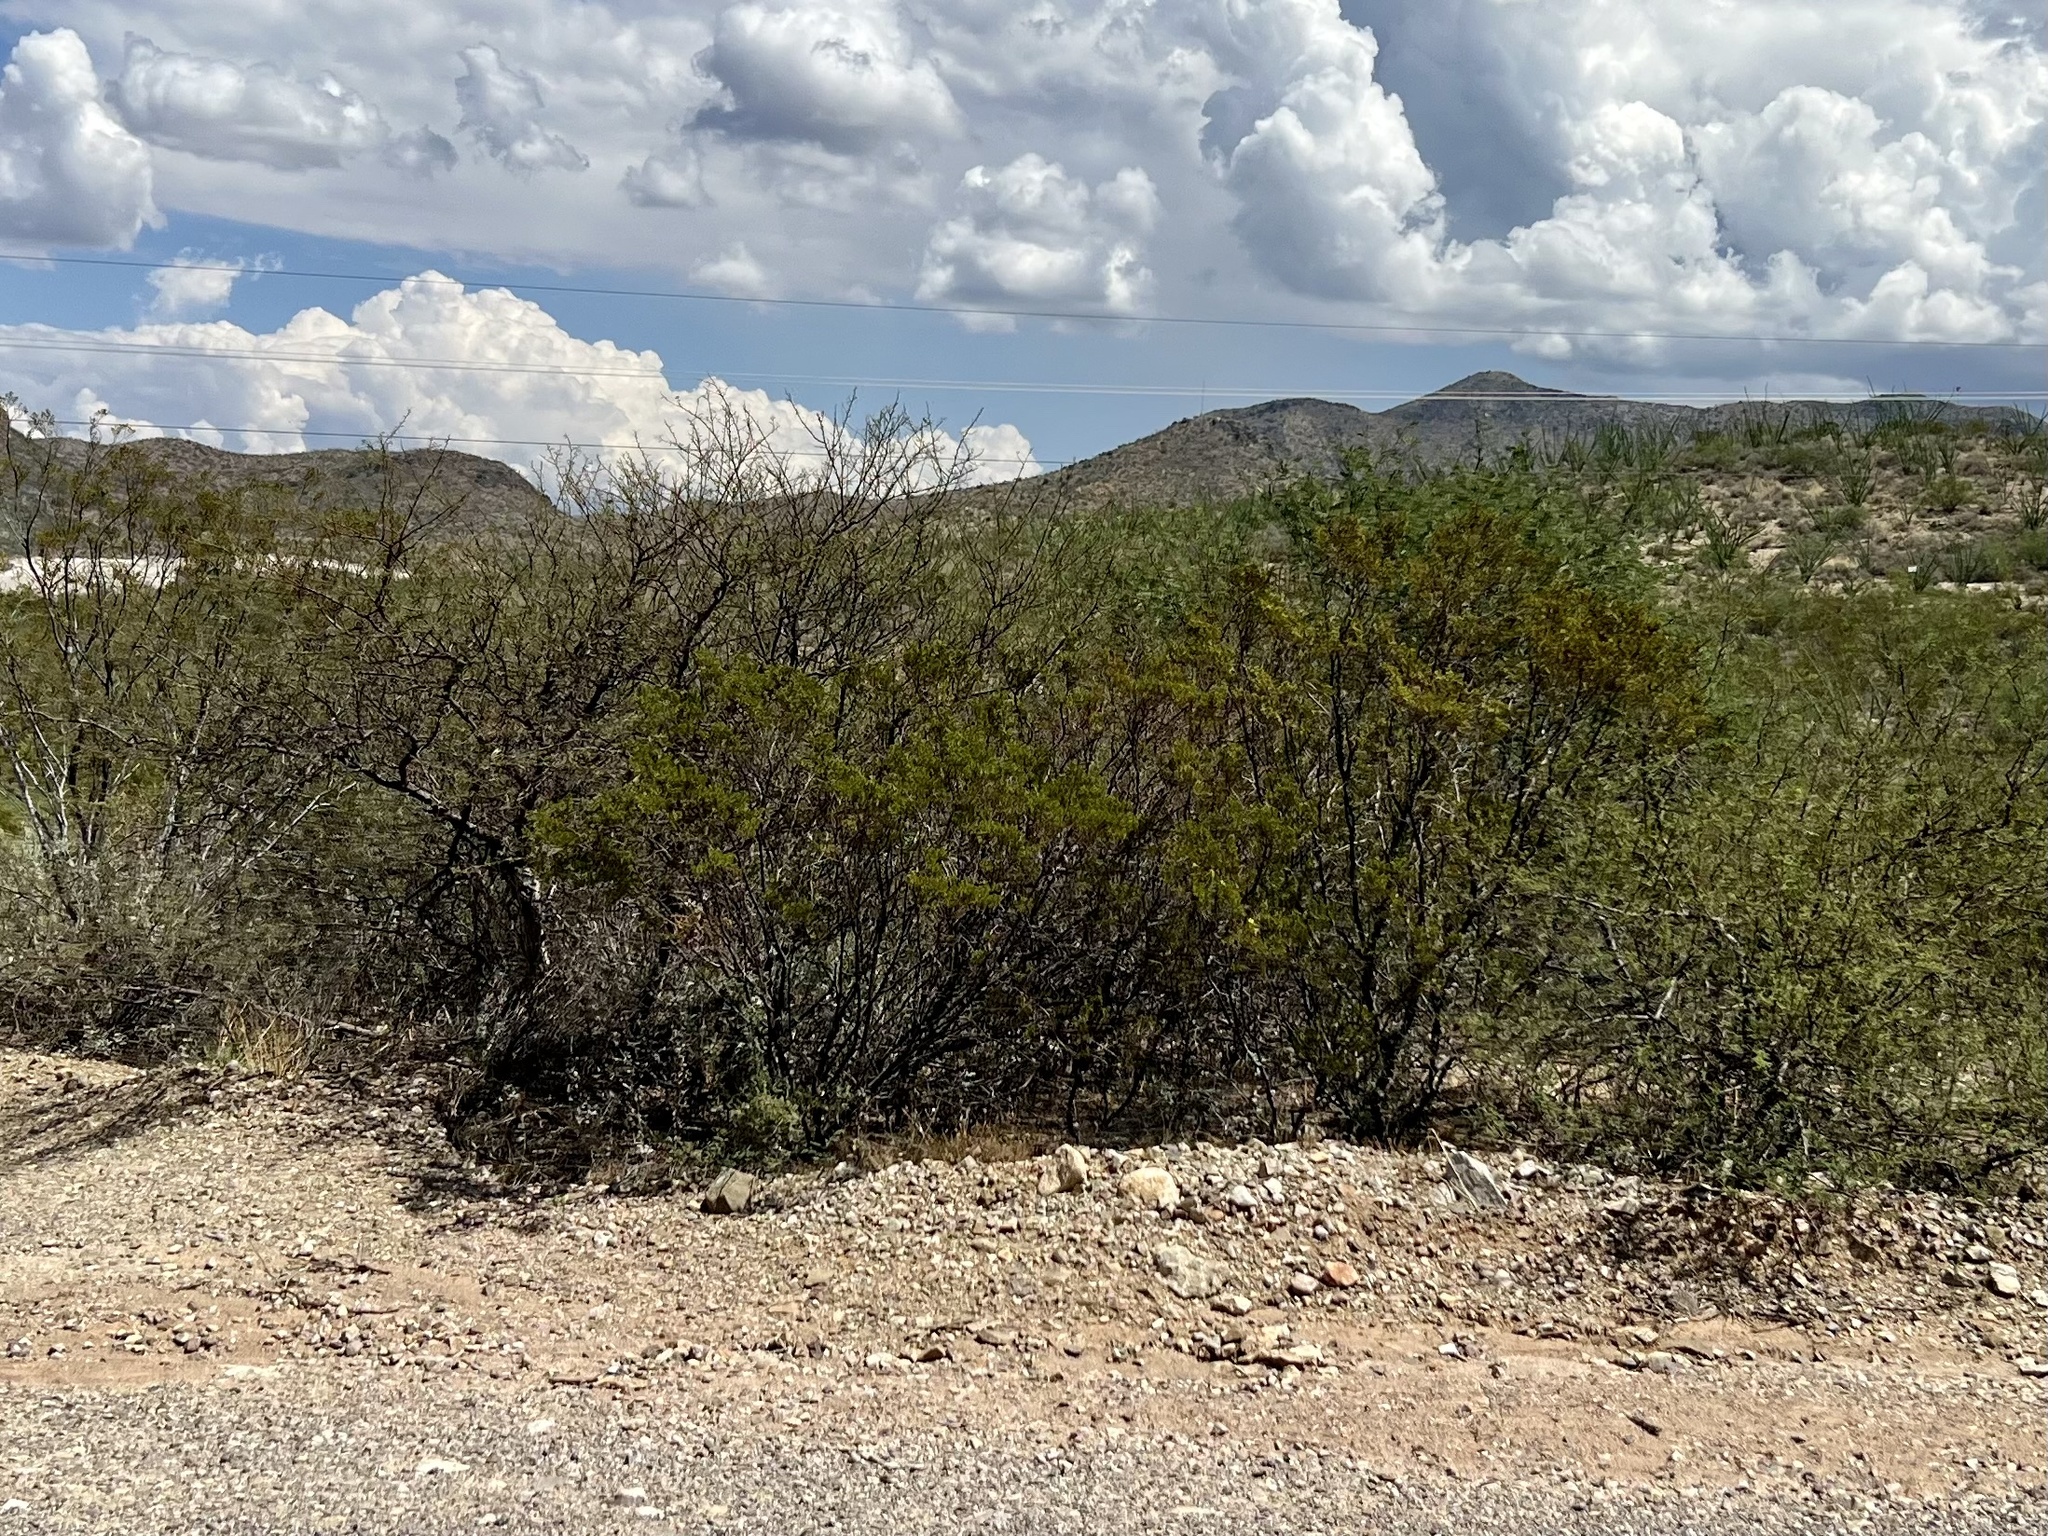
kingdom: Plantae
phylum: Tracheophyta
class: Magnoliopsida
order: Zygophyllales
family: Zygophyllaceae
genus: Larrea
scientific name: Larrea tridentata
